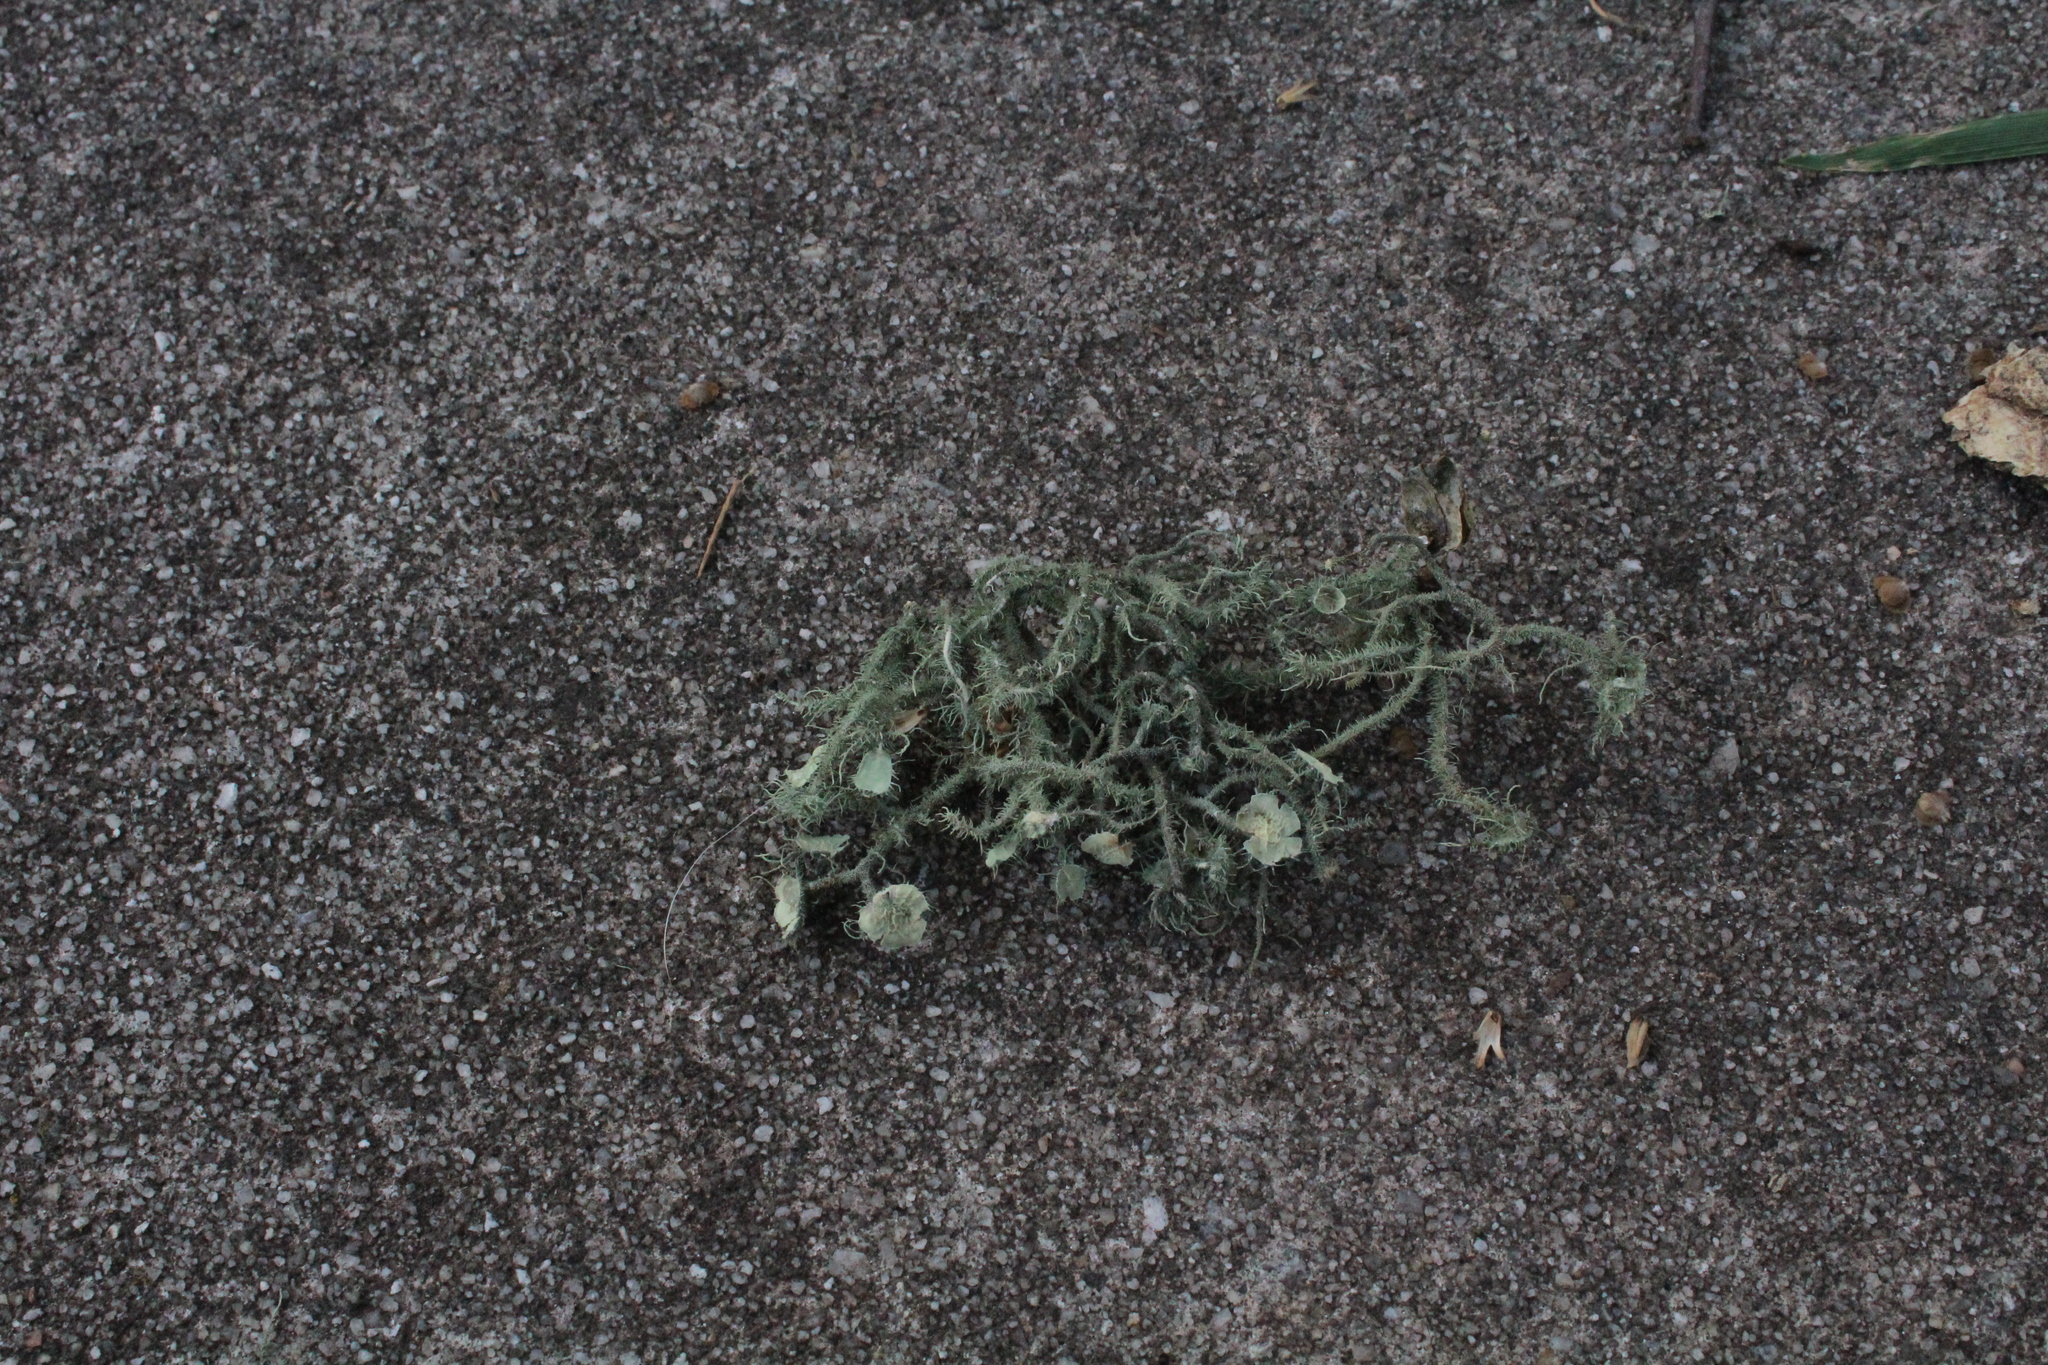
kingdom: Fungi
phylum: Ascomycota
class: Lecanoromycetes
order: Lecanorales
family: Parmeliaceae
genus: Usnea
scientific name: Usnea strigosa
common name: Bushy beard lichen
